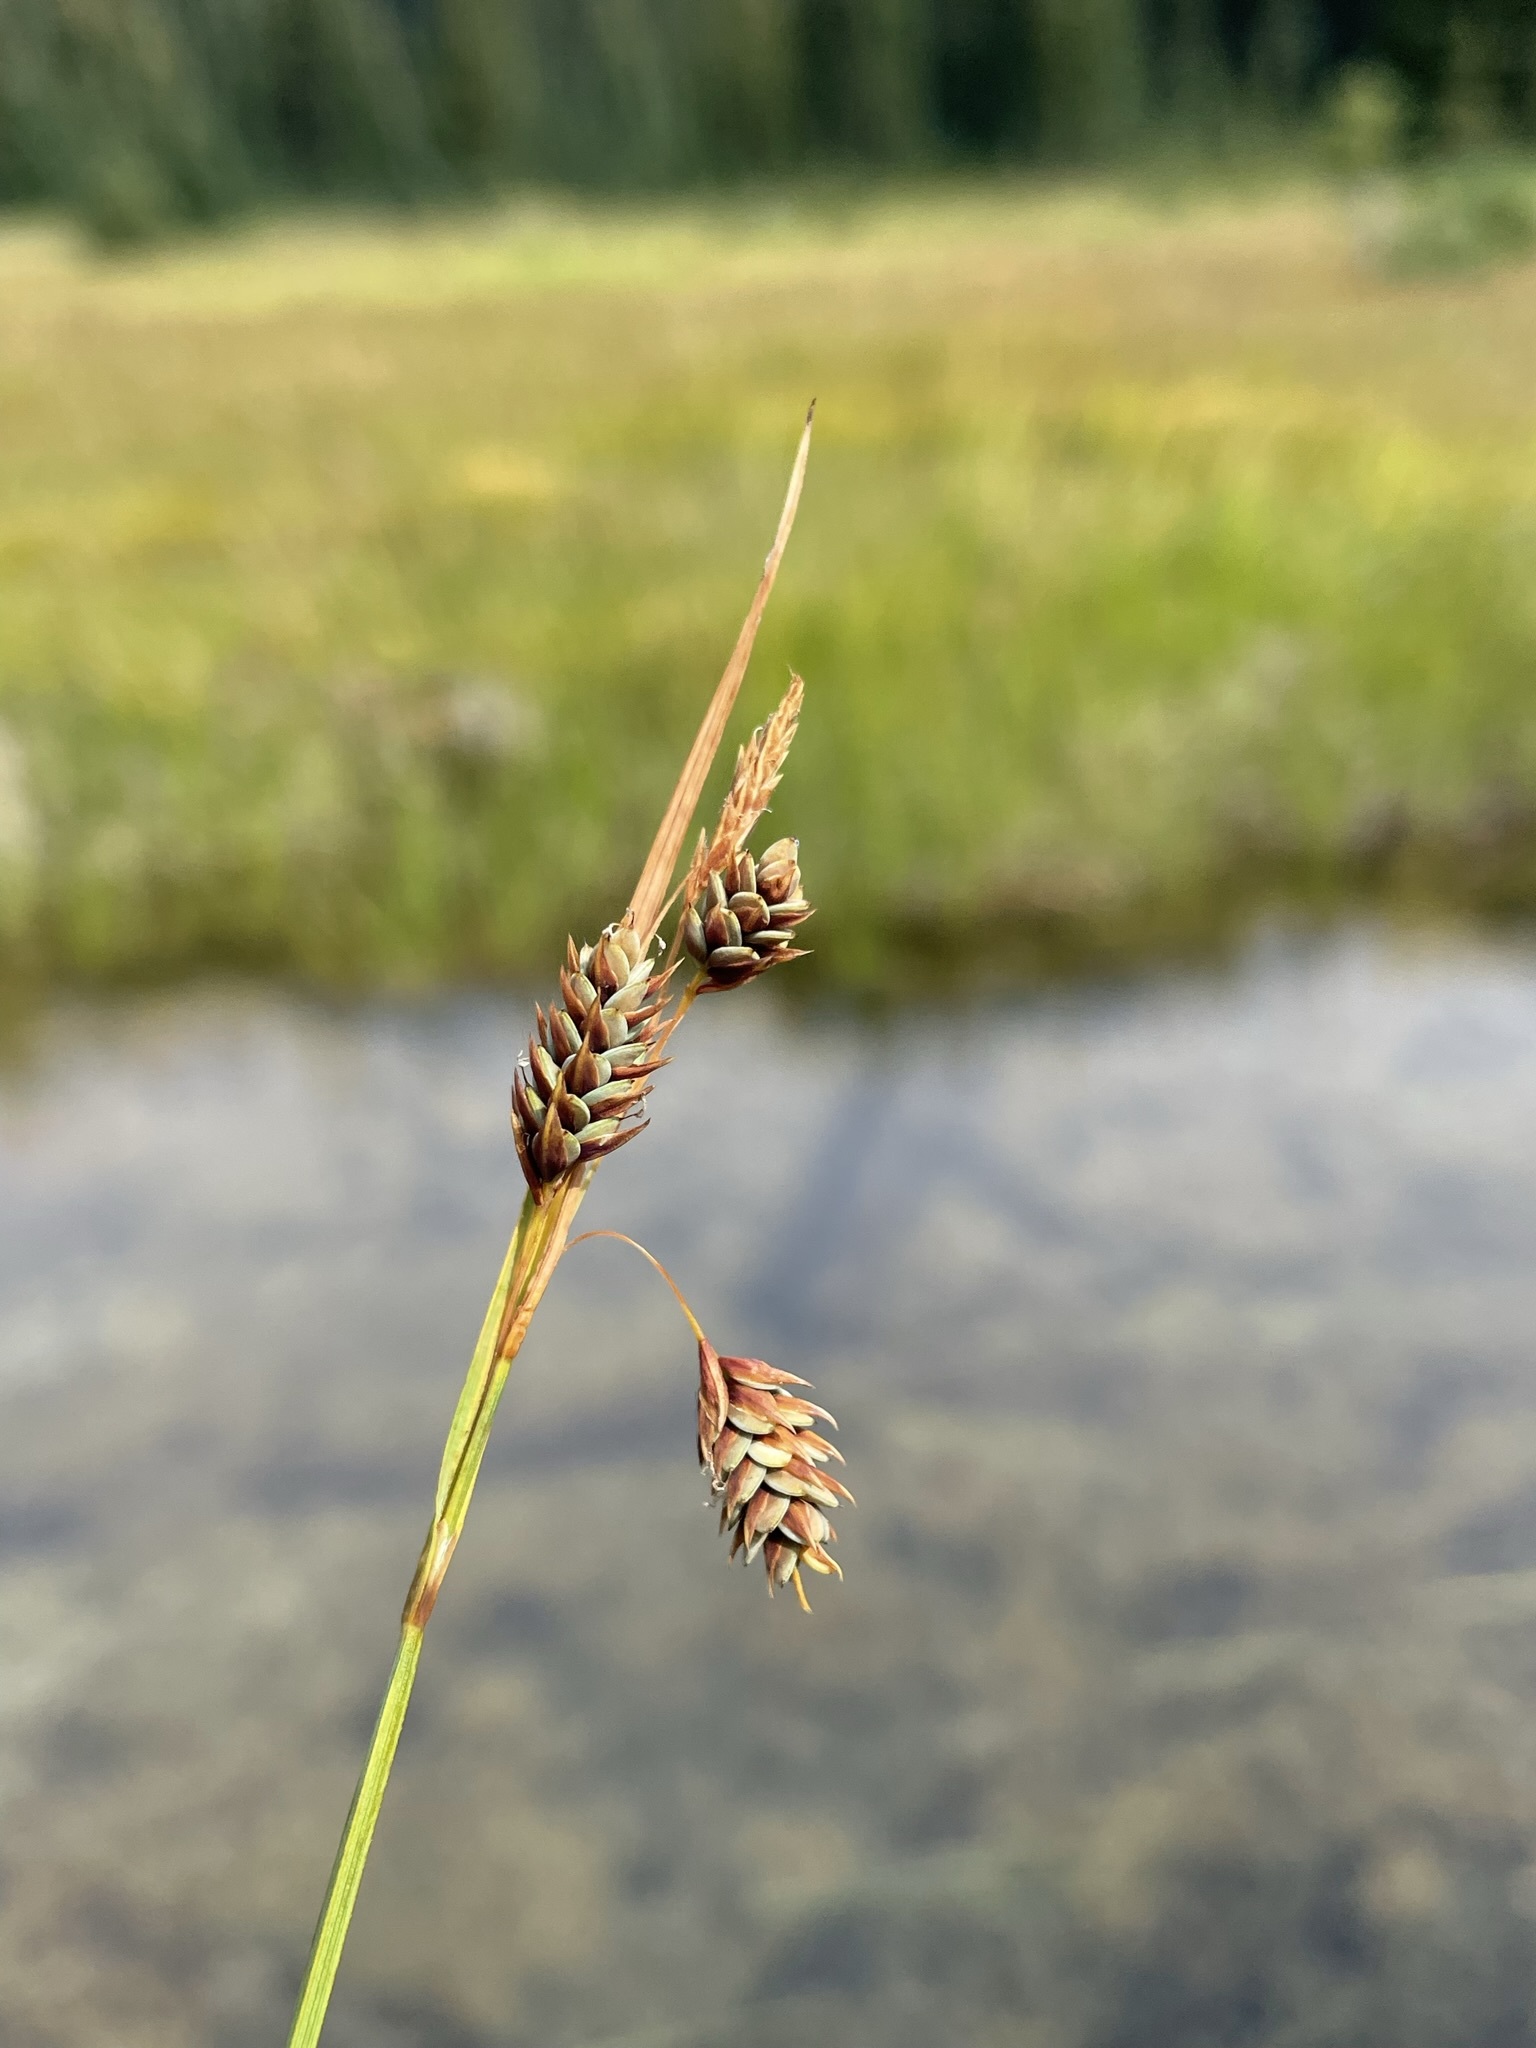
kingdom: Plantae
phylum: Tracheophyta
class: Liliopsida
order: Poales
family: Cyperaceae
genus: Carex
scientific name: Carex magellanica
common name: Bog sedge
